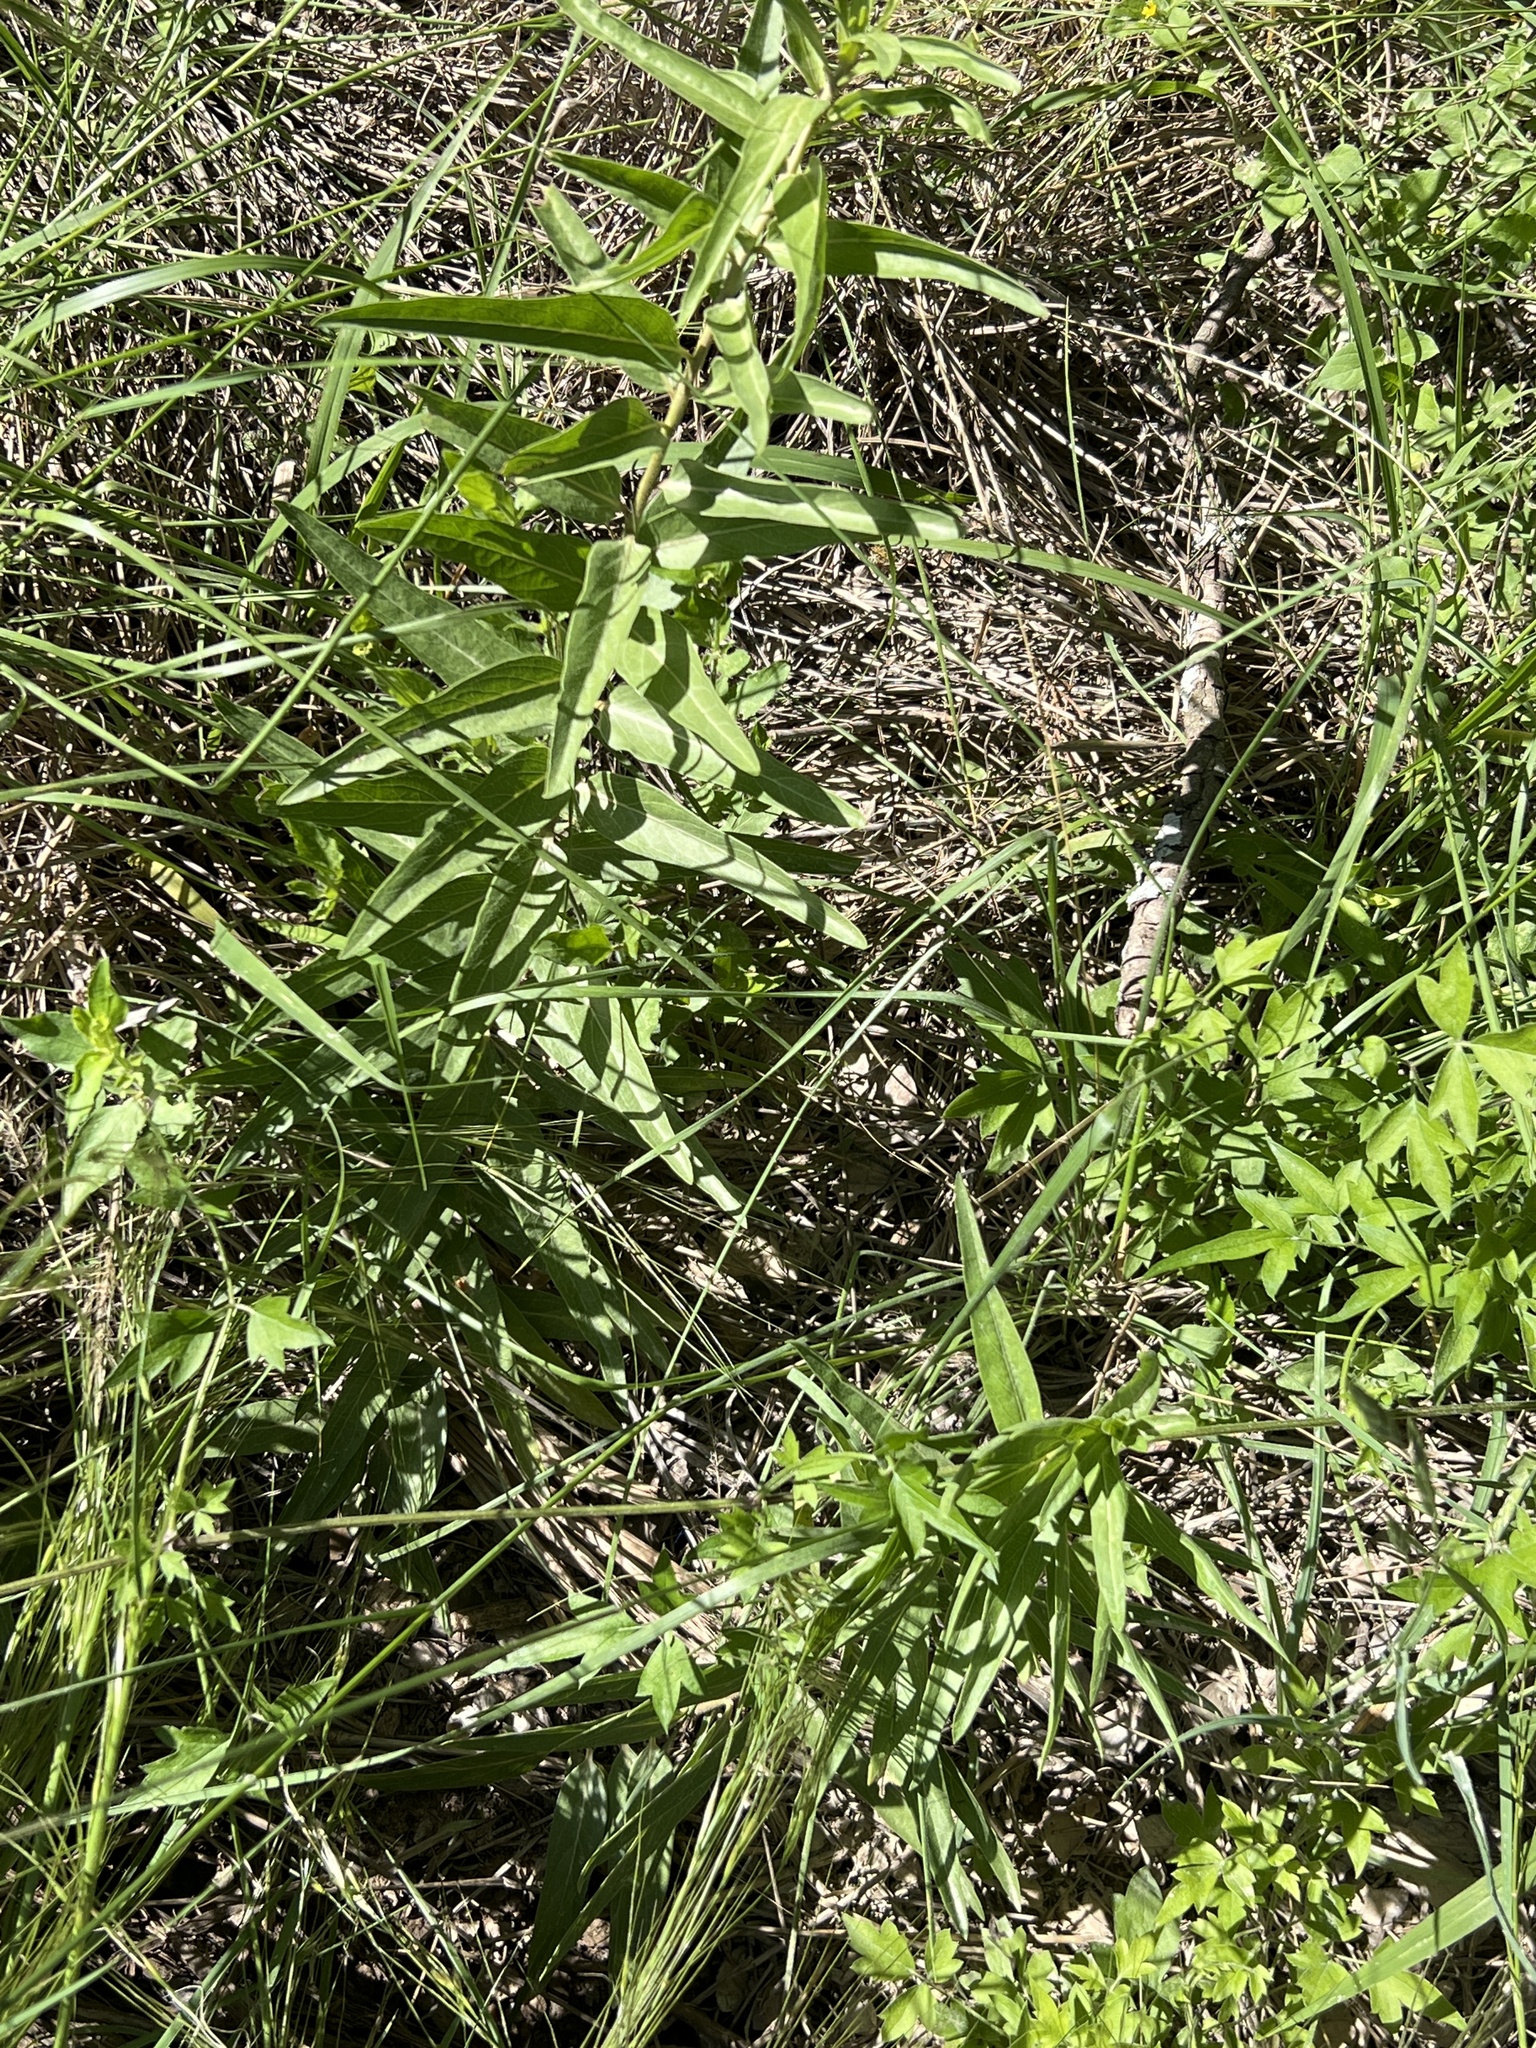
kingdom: Plantae
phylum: Tracheophyta
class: Magnoliopsida
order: Gentianales
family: Apocynaceae
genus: Asclepias
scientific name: Asclepias asperula
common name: Antelope horns
